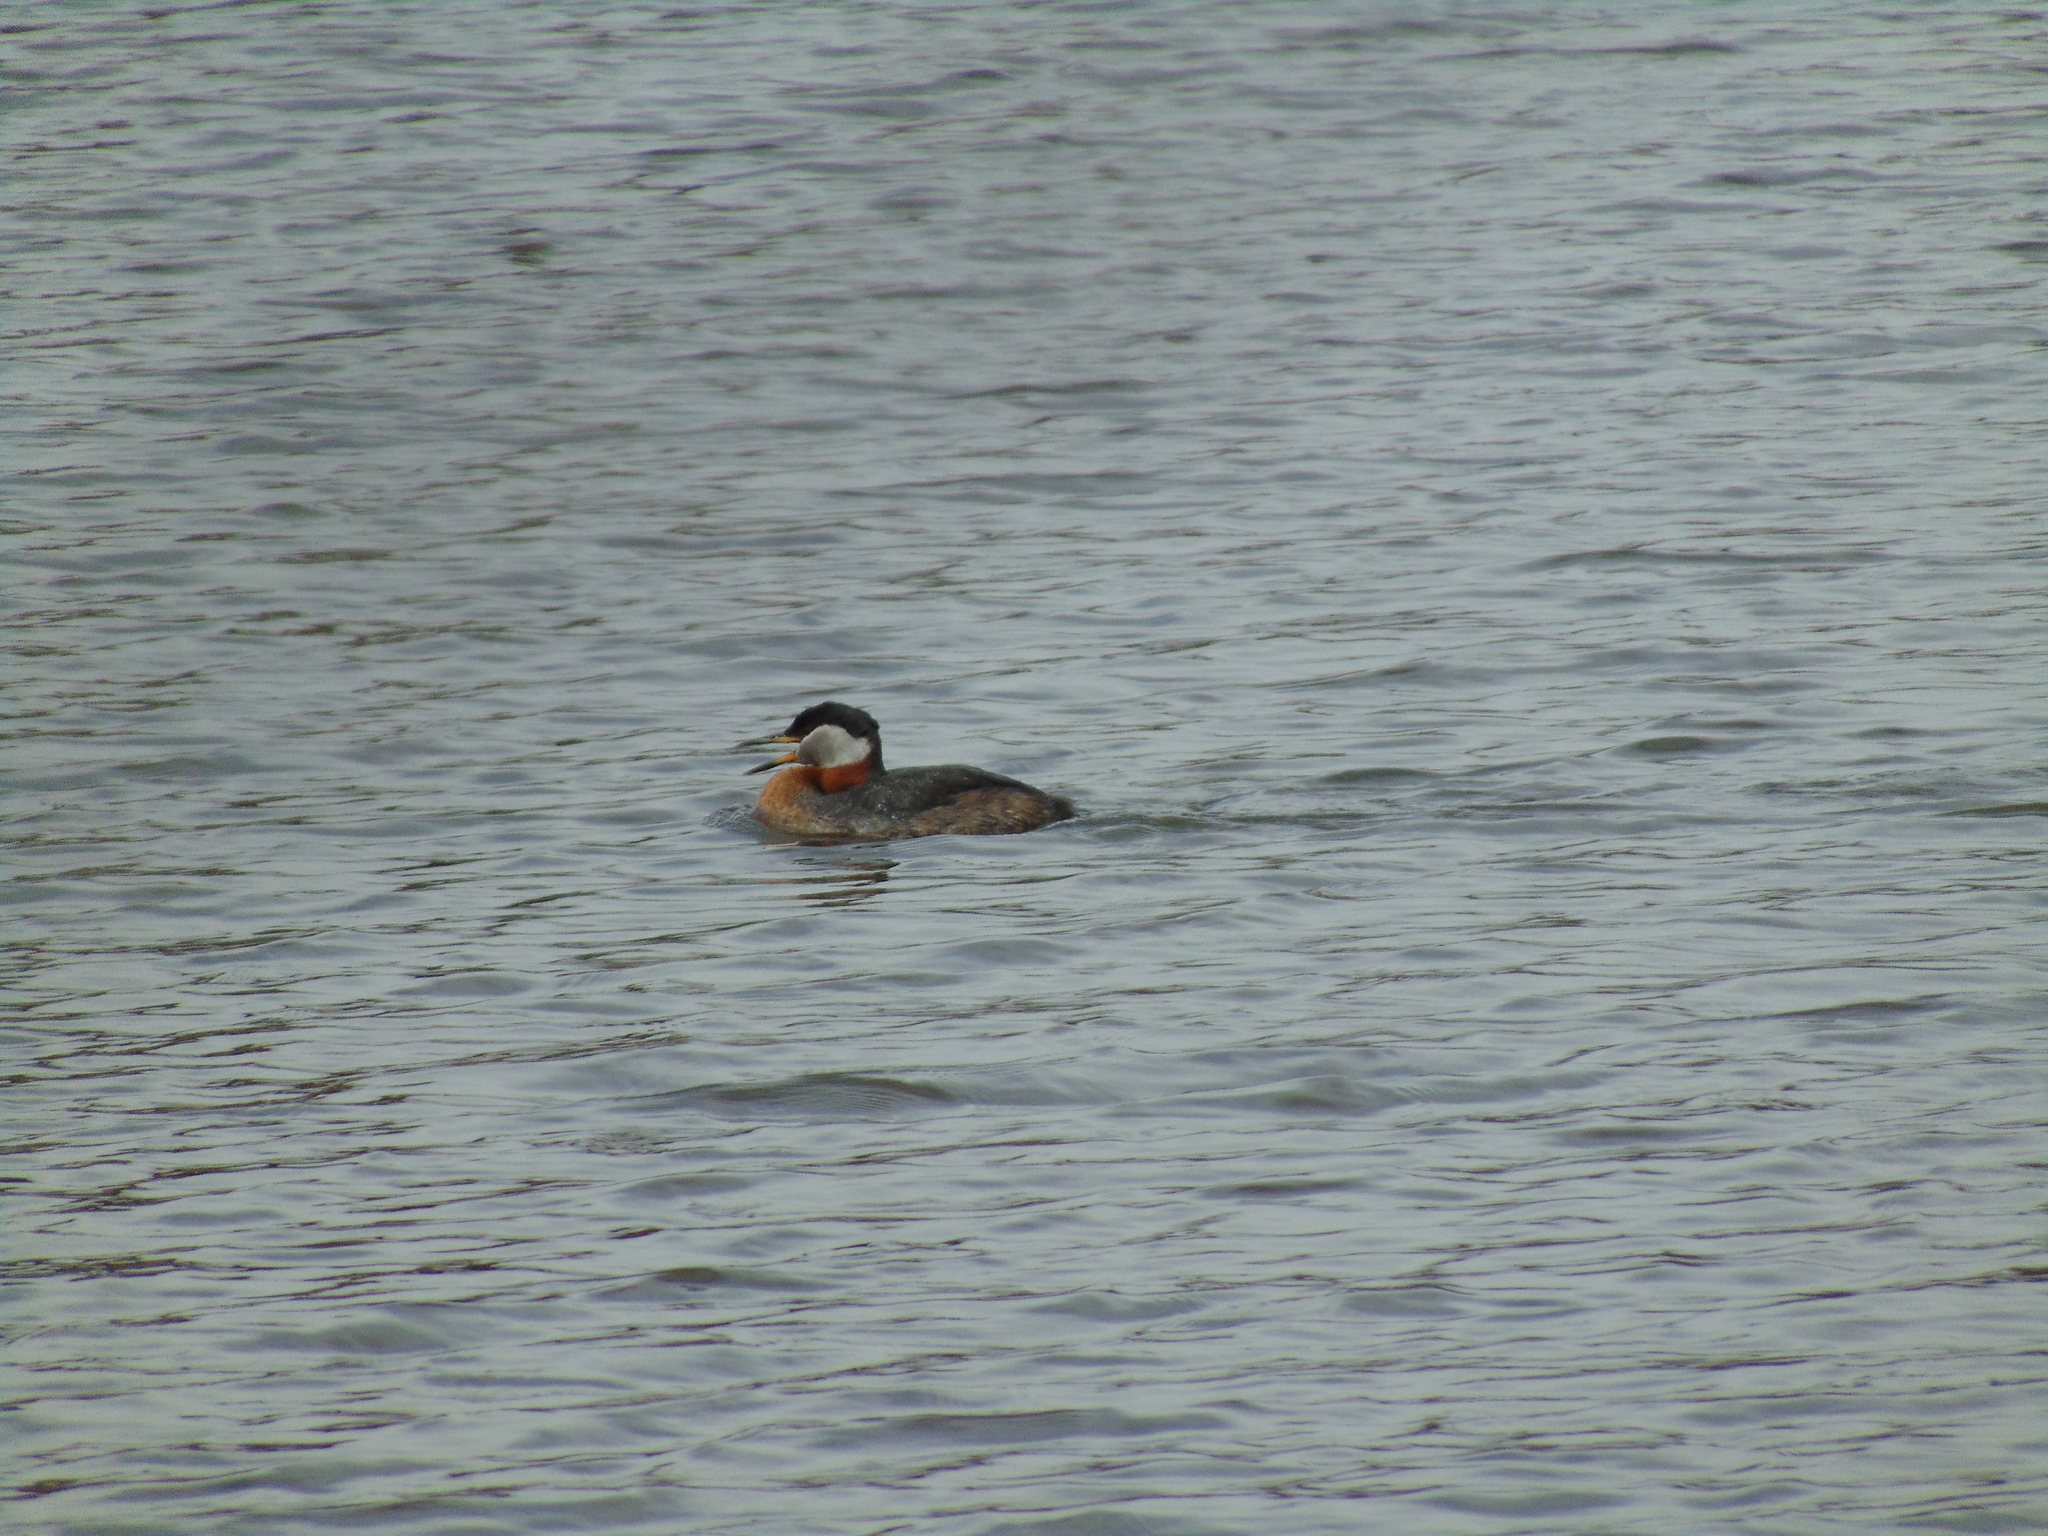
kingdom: Animalia
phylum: Chordata
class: Aves
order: Podicipediformes
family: Podicipedidae
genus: Podiceps
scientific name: Podiceps grisegena
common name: Red-necked grebe
